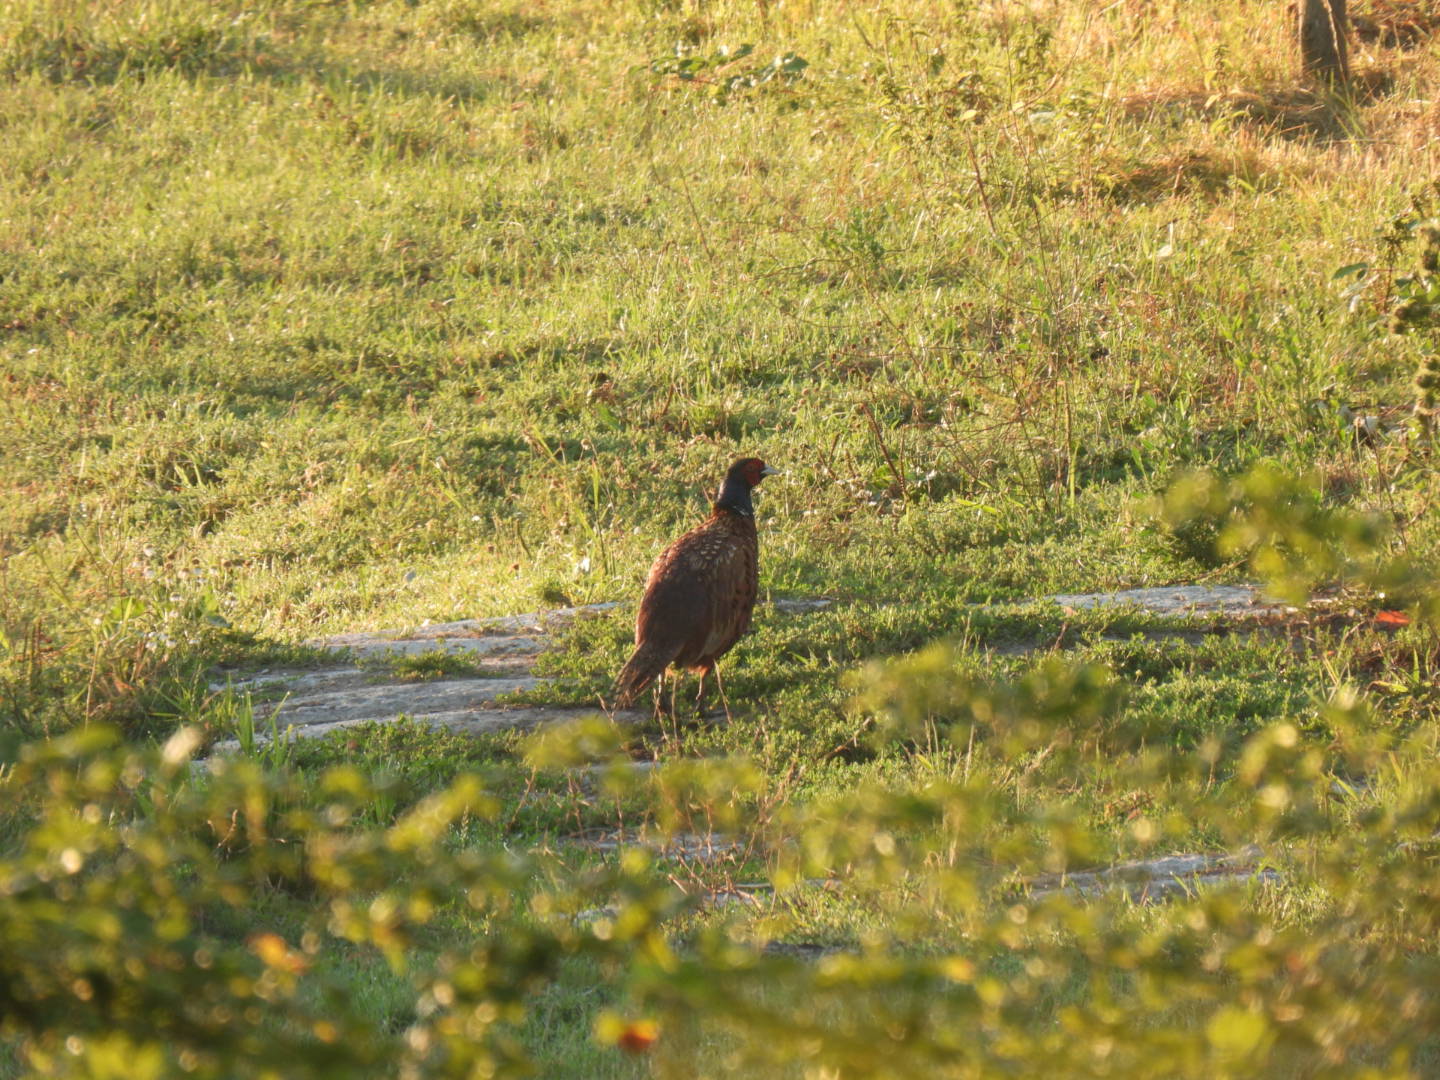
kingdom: Animalia
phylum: Chordata
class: Aves
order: Galliformes
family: Phasianidae
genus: Phasianus
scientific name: Phasianus colchicus
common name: Common pheasant
